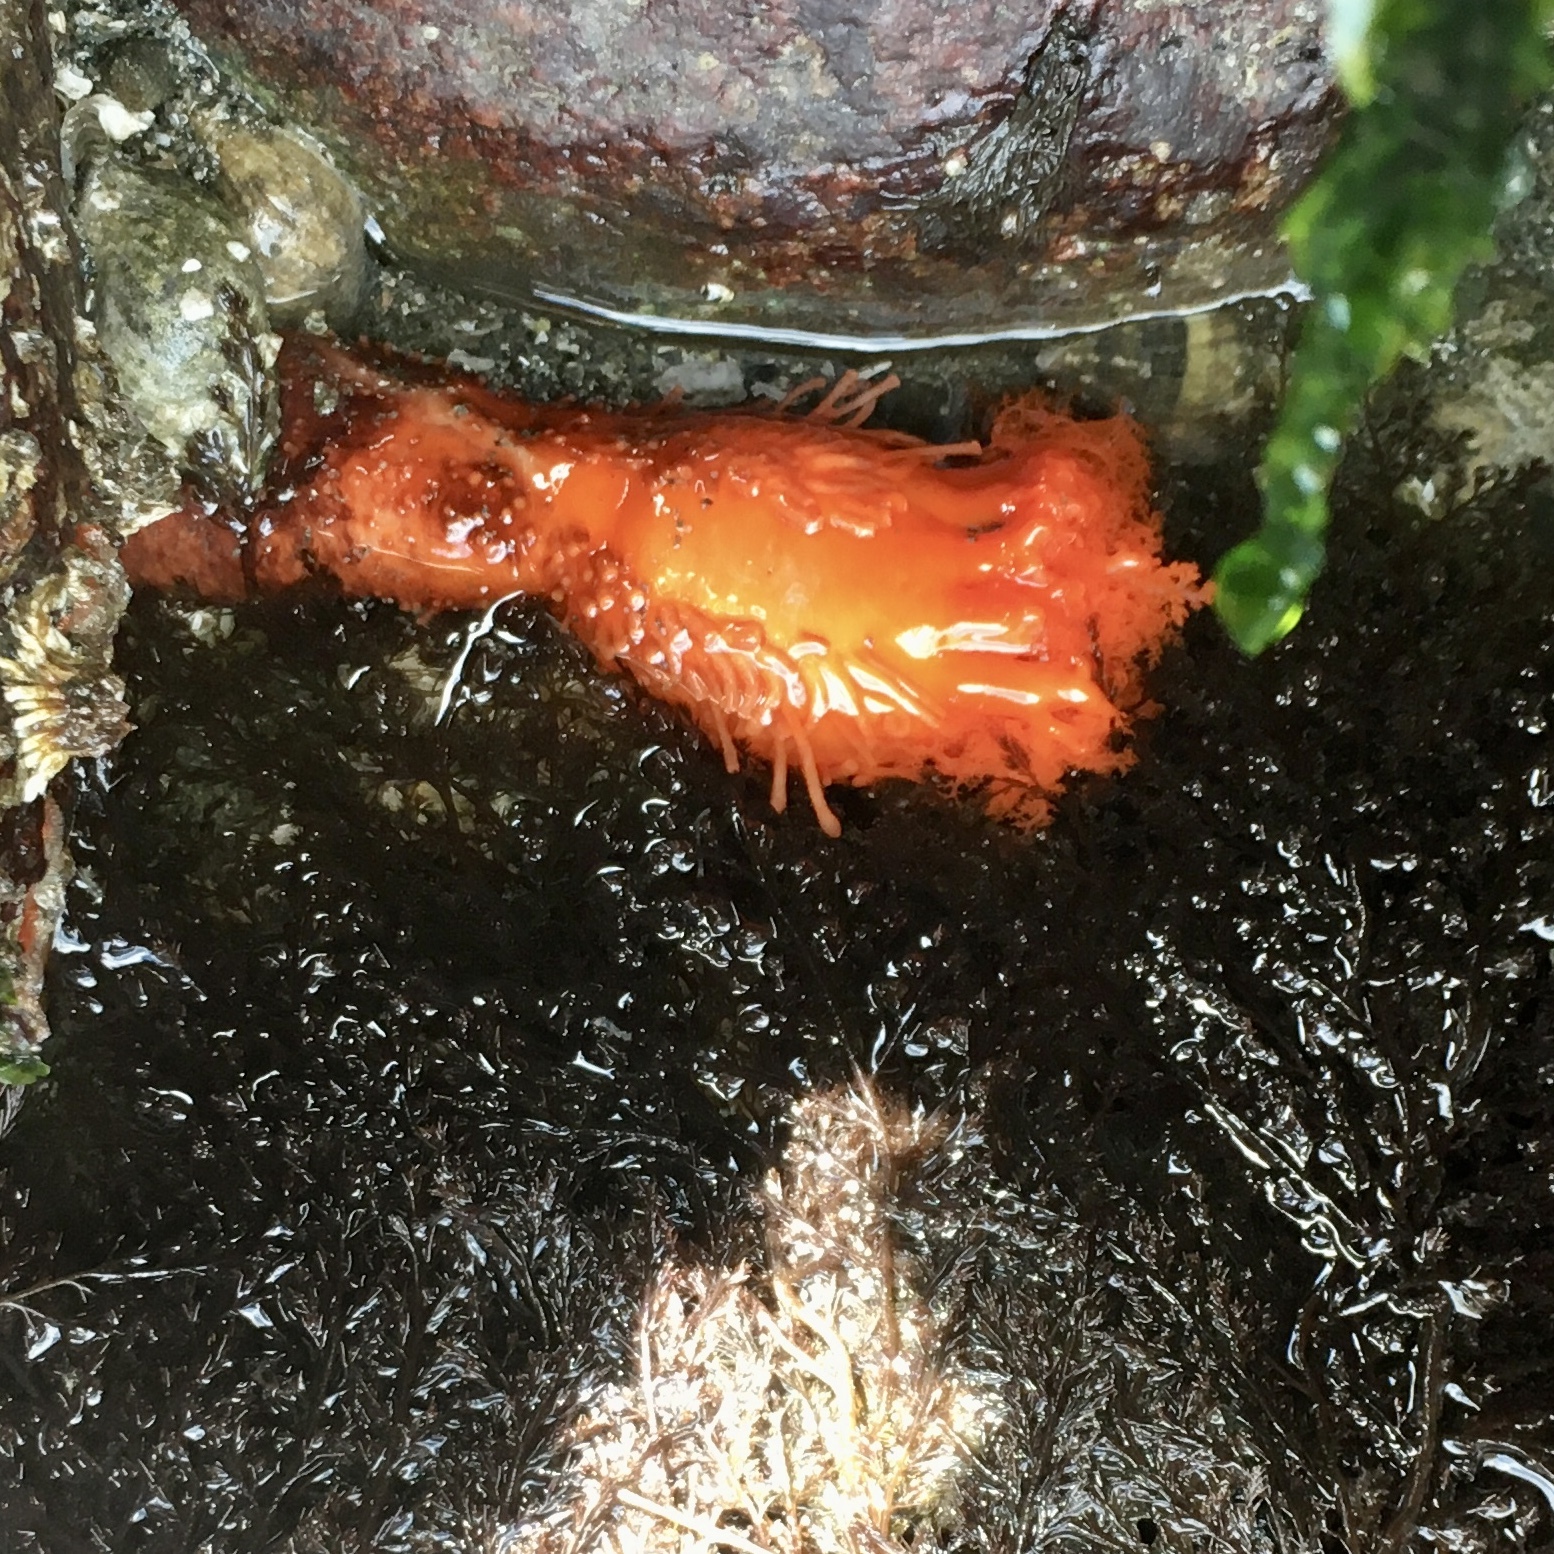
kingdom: Animalia
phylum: Echinodermata
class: Holothuroidea
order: Dendrochirotida
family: Cucumariidae
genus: Cucumaria
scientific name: Cucumaria miniata
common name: Orange sea cucumber
